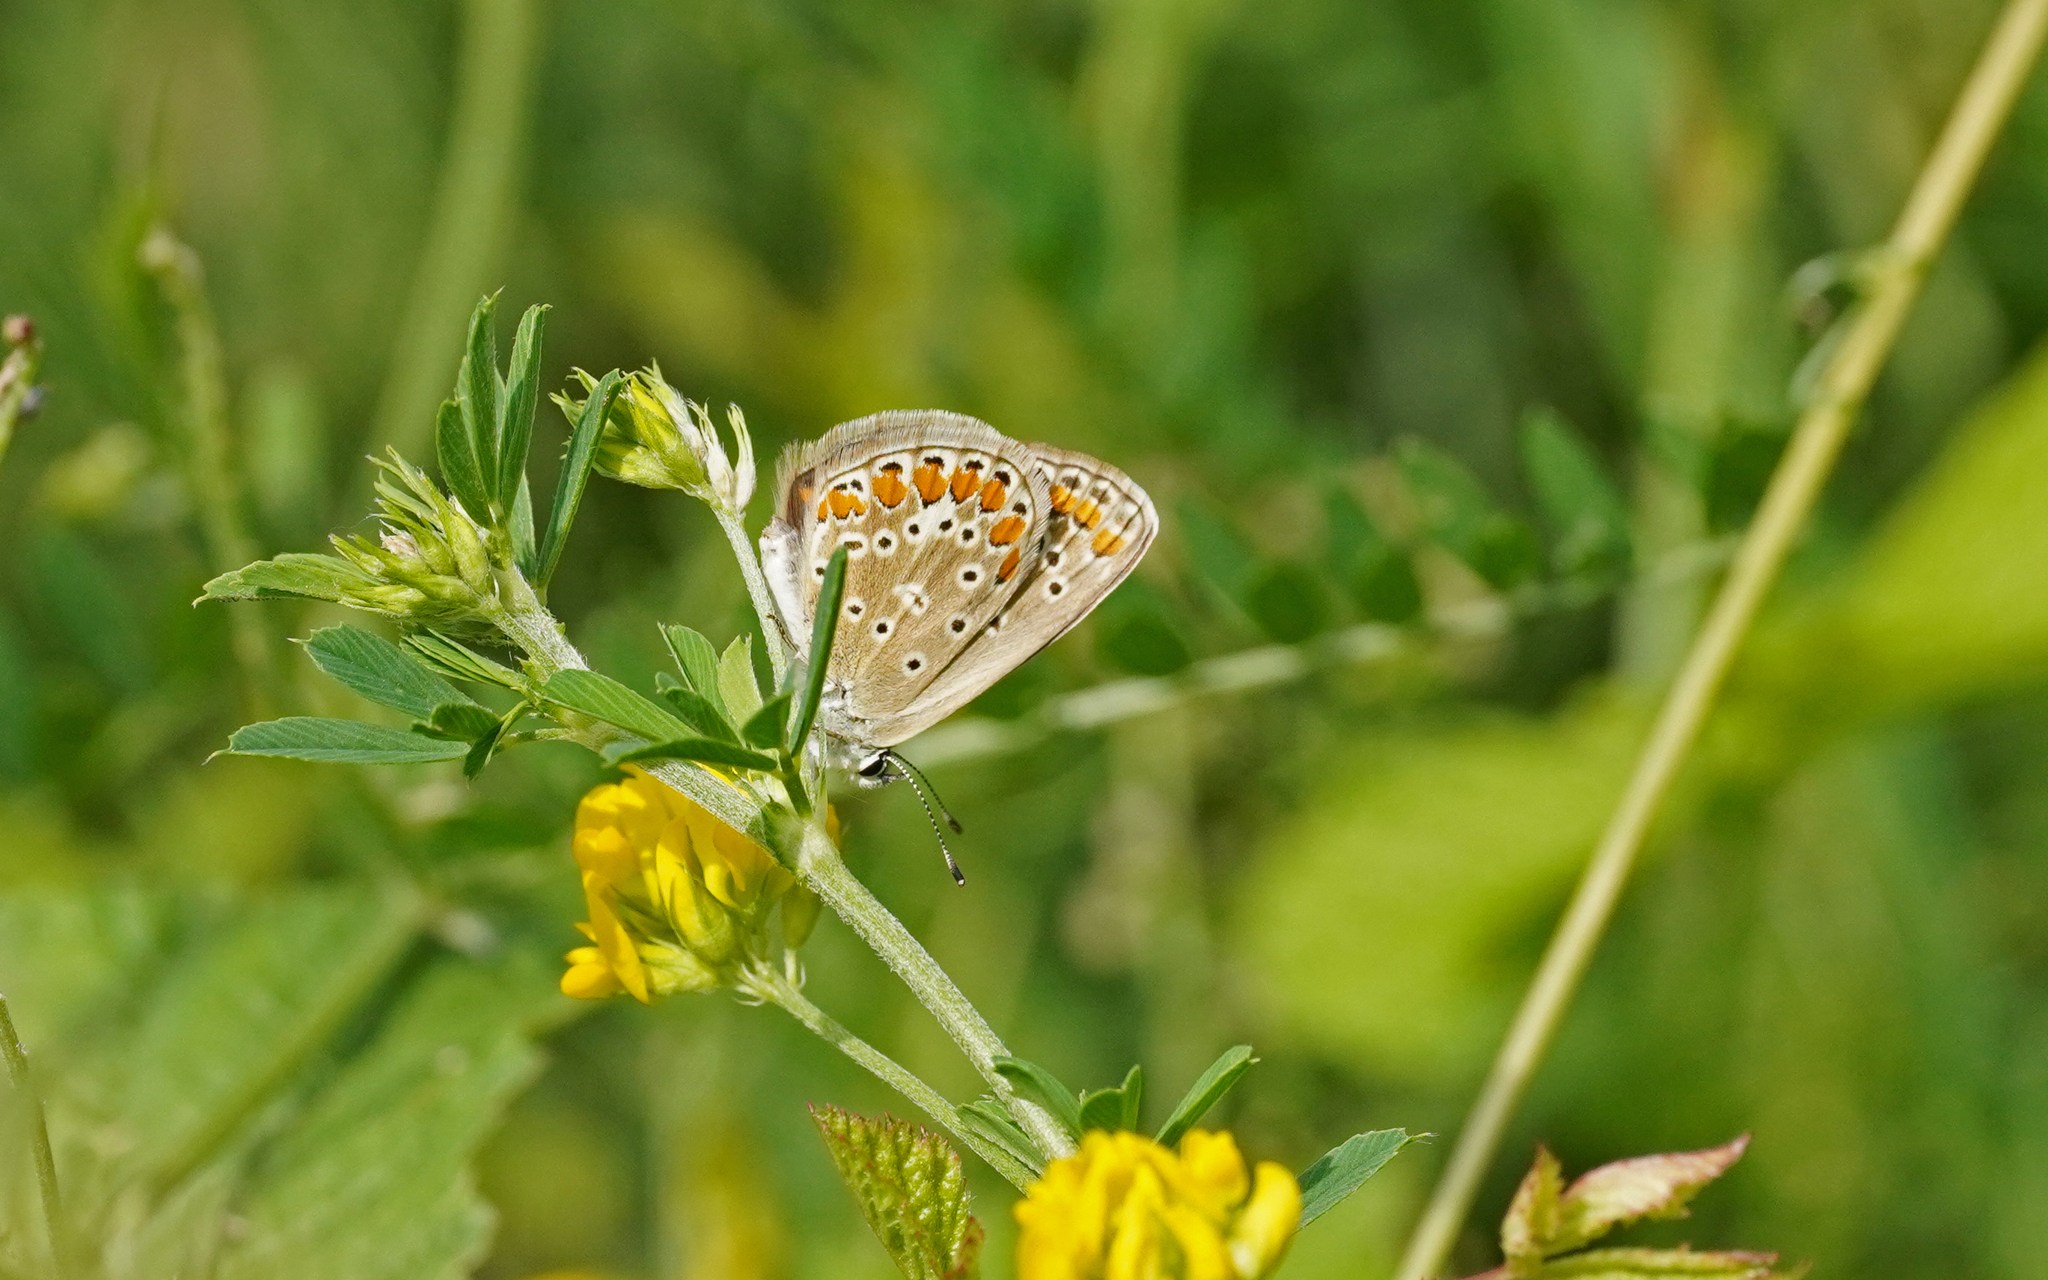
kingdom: Animalia
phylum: Arthropoda
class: Insecta
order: Lepidoptera
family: Lycaenidae
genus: Polyommatus
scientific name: Polyommatus icarus
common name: Common blue
